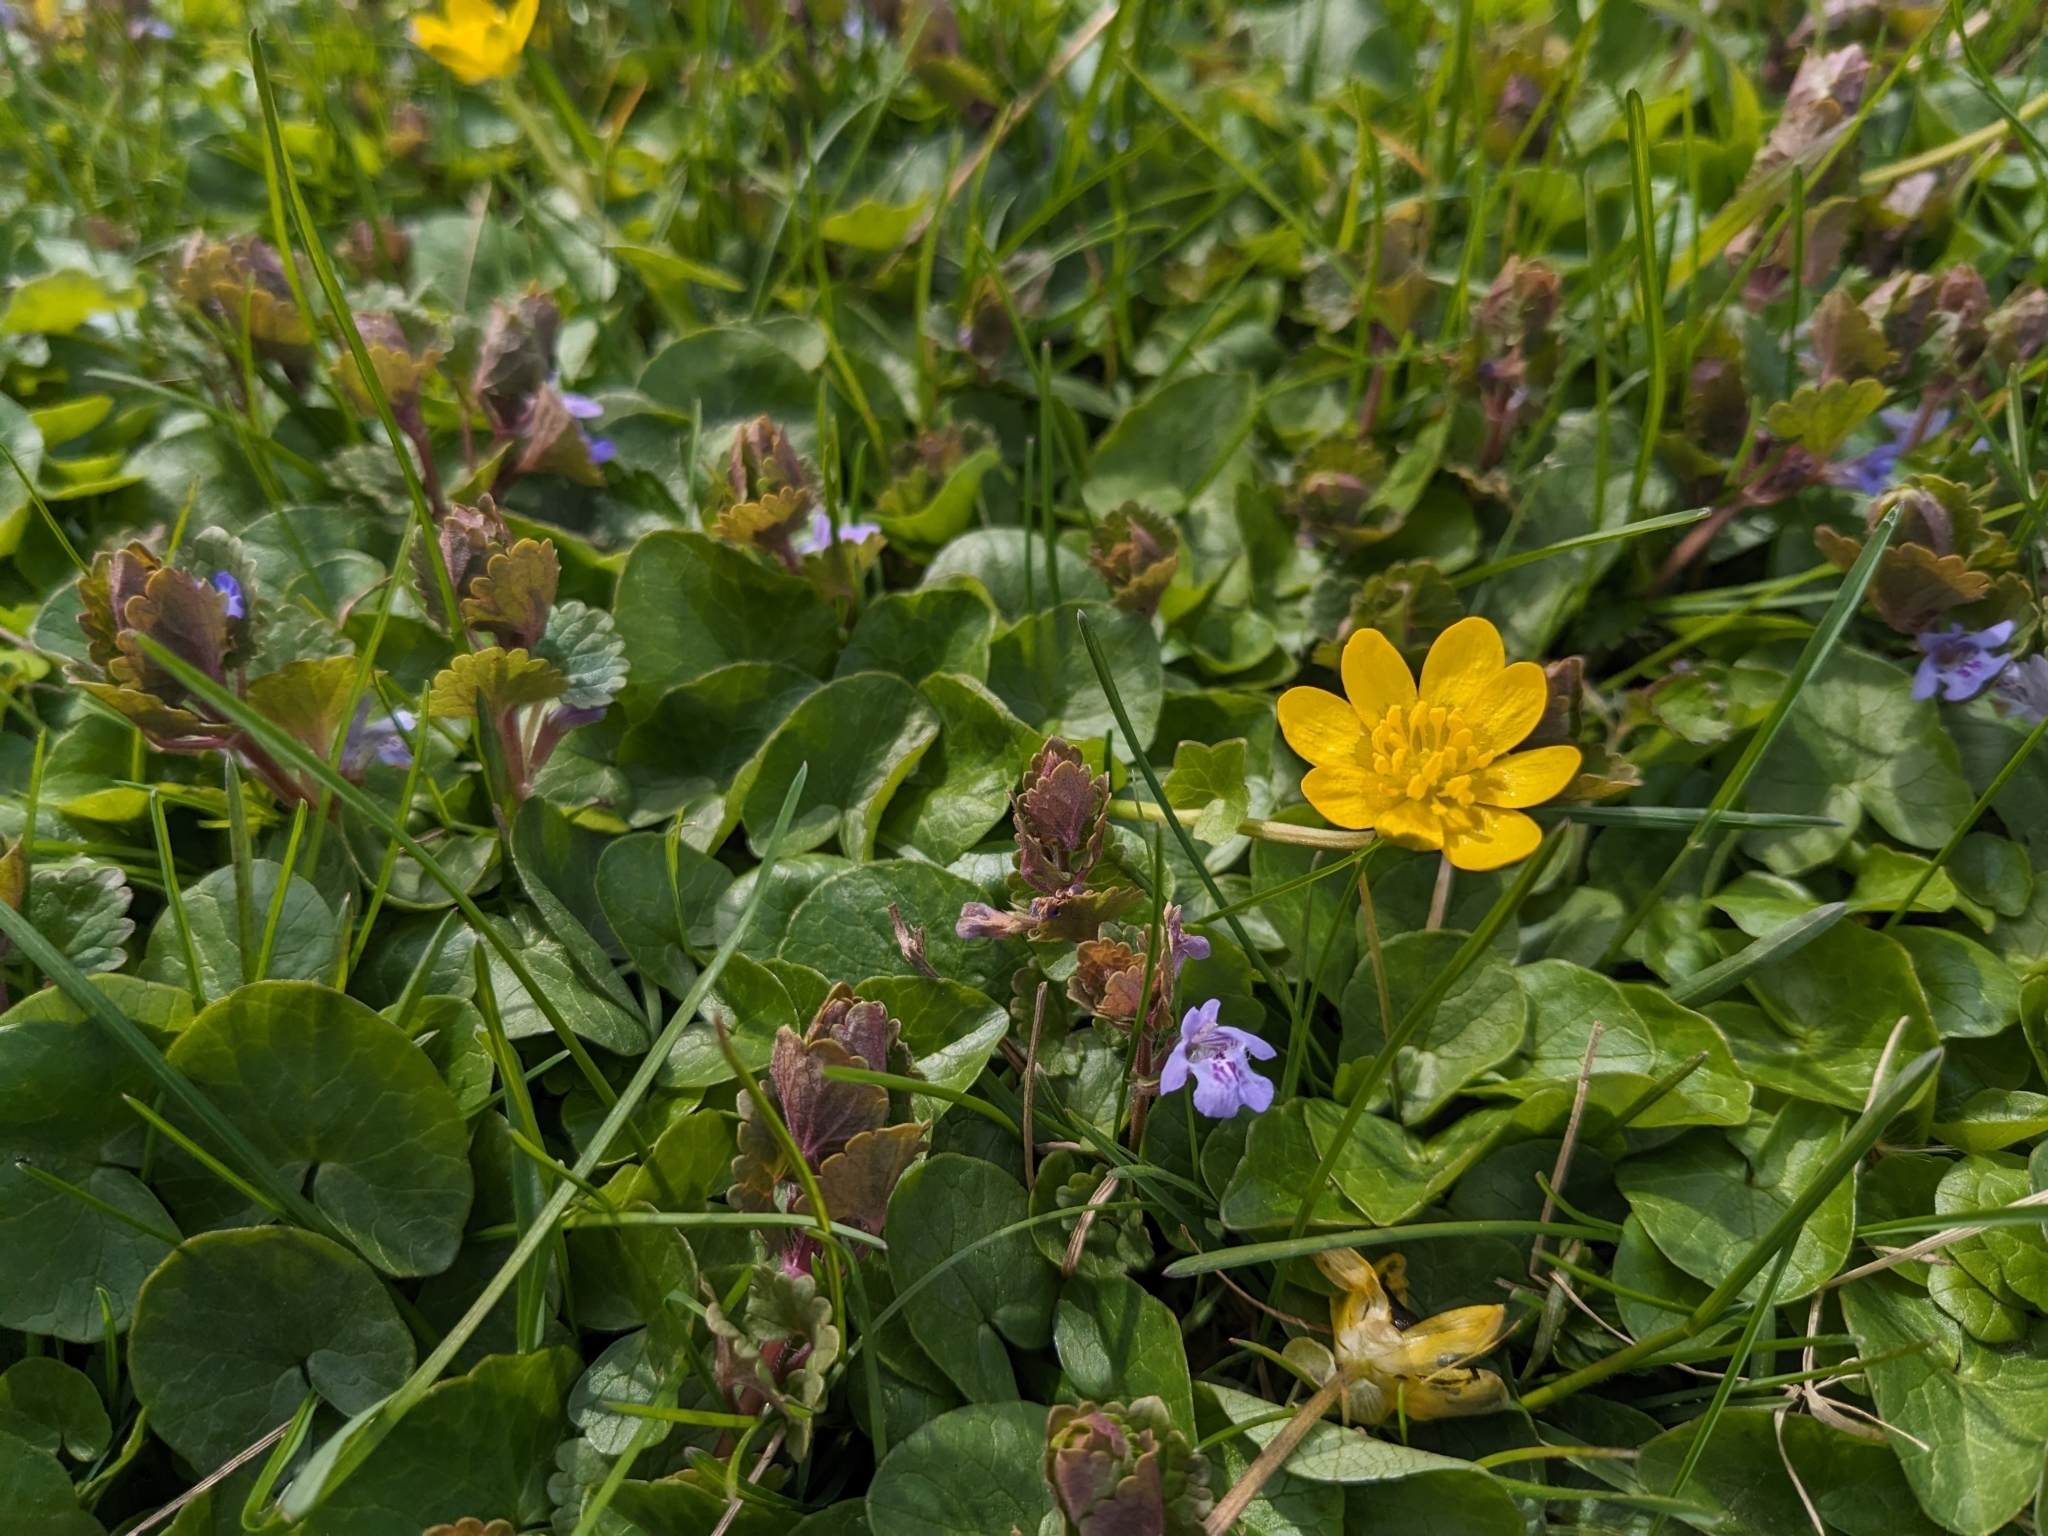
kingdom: Plantae
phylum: Tracheophyta
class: Magnoliopsida
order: Ranunculales
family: Ranunculaceae
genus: Ficaria
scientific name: Ficaria verna
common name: Lesser celandine
